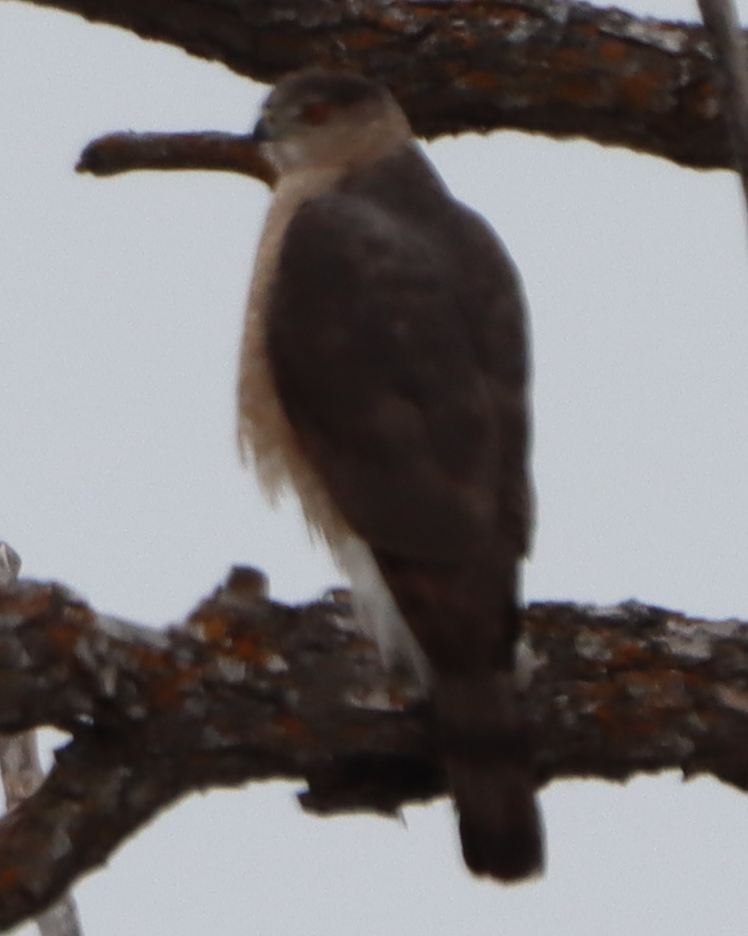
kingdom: Animalia
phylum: Chordata
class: Aves
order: Accipitriformes
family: Accipitridae
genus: Accipiter
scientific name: Accipiter cooperii
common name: Cooper's hawk
